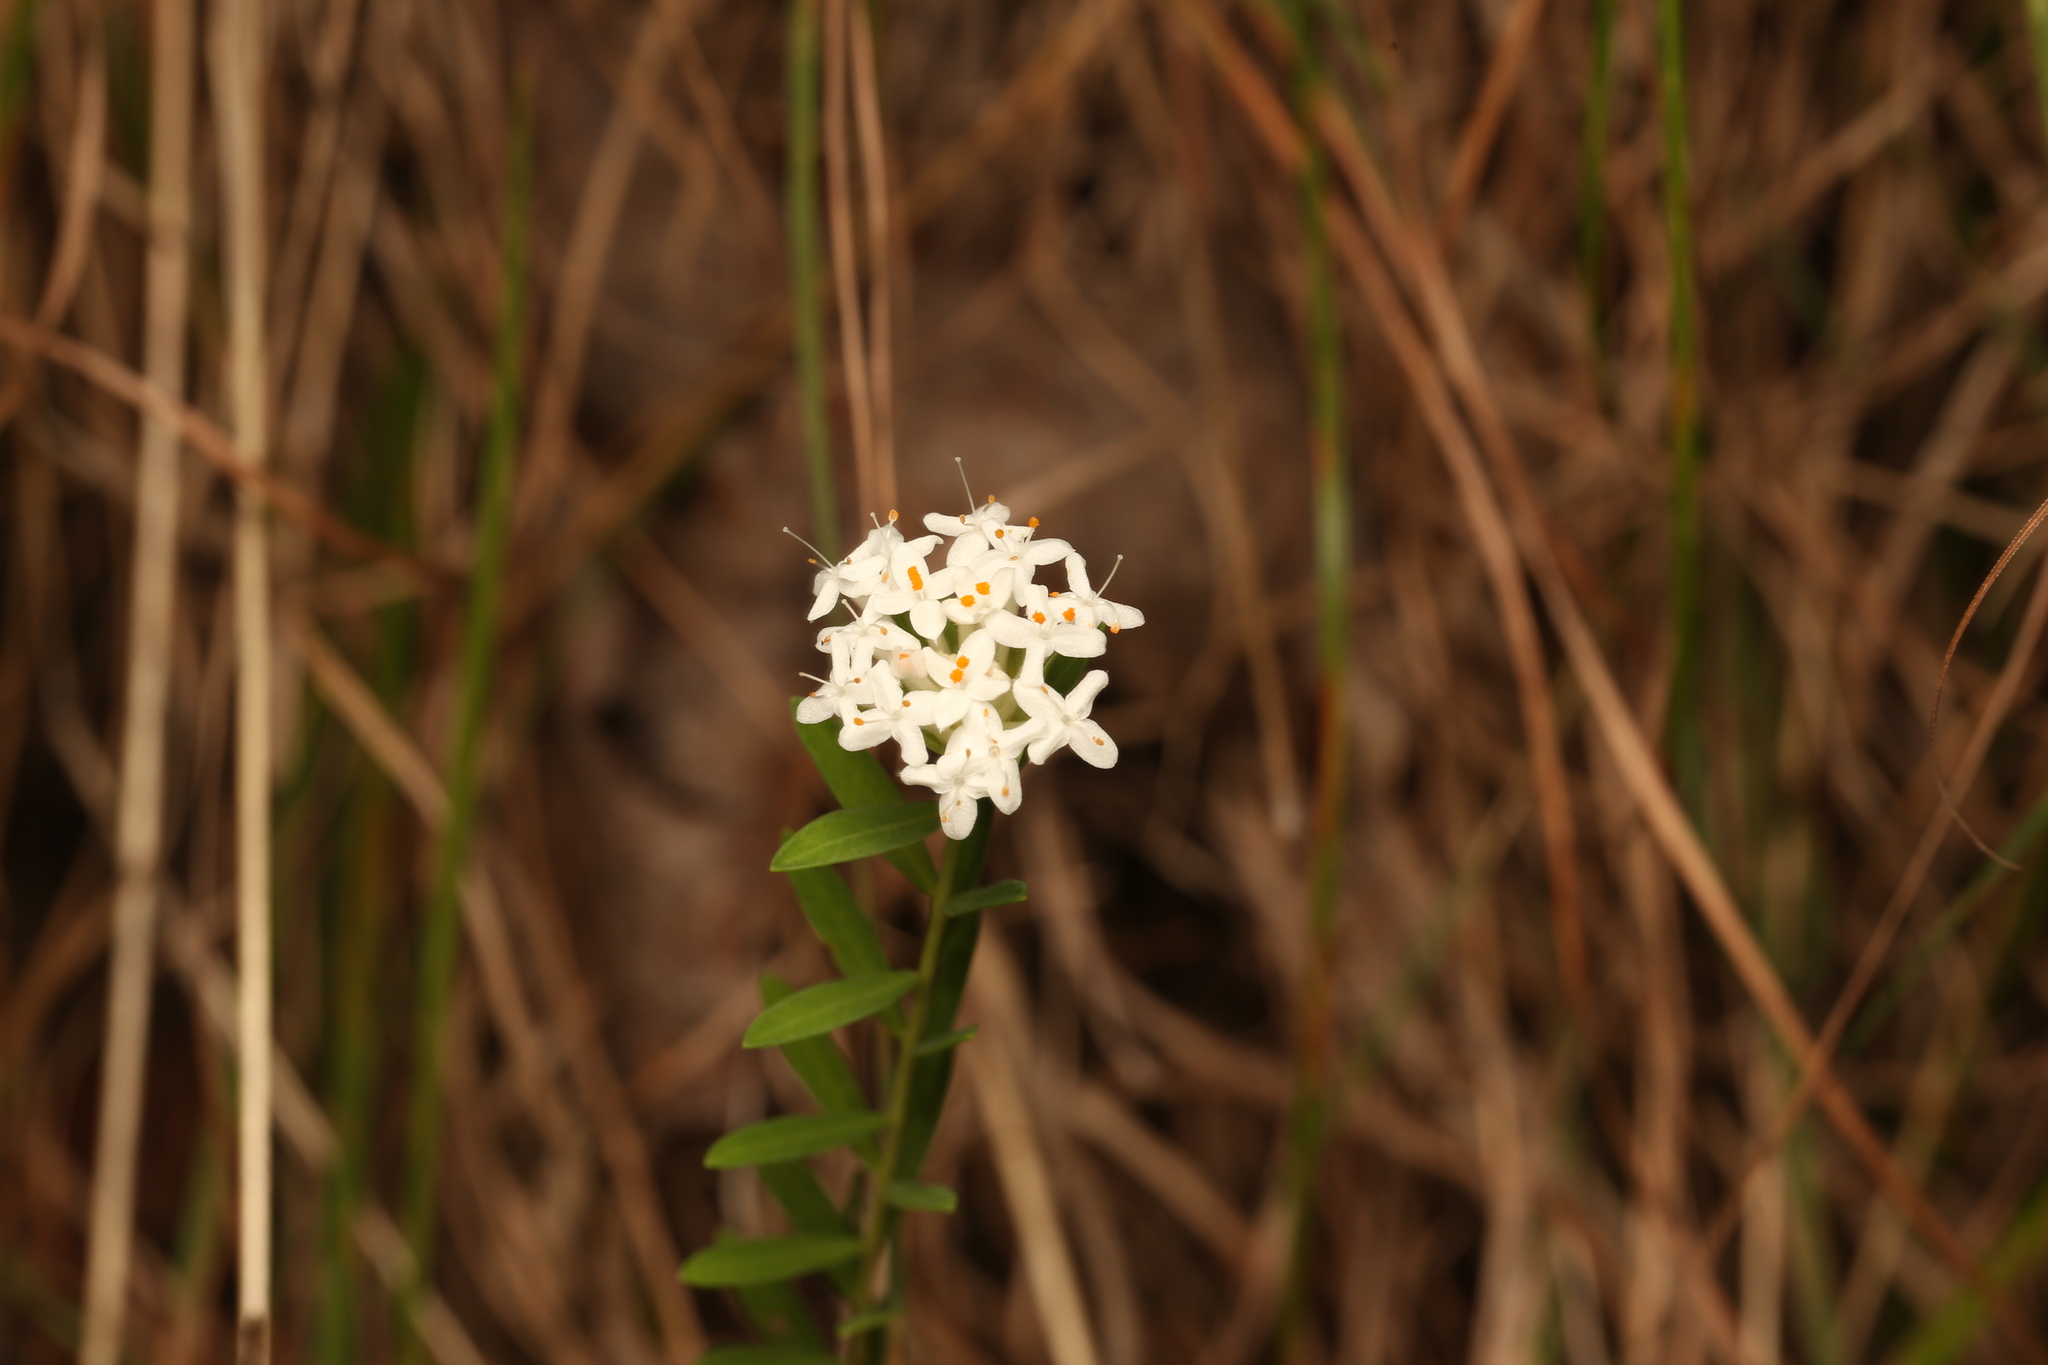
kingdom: Plantae
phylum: Tracheophyta
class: Magnoliopsida
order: Malvales
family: Thymelaeaceae
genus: Pimelea
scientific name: Pimelea linifolia
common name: Queen-of-the-bush
